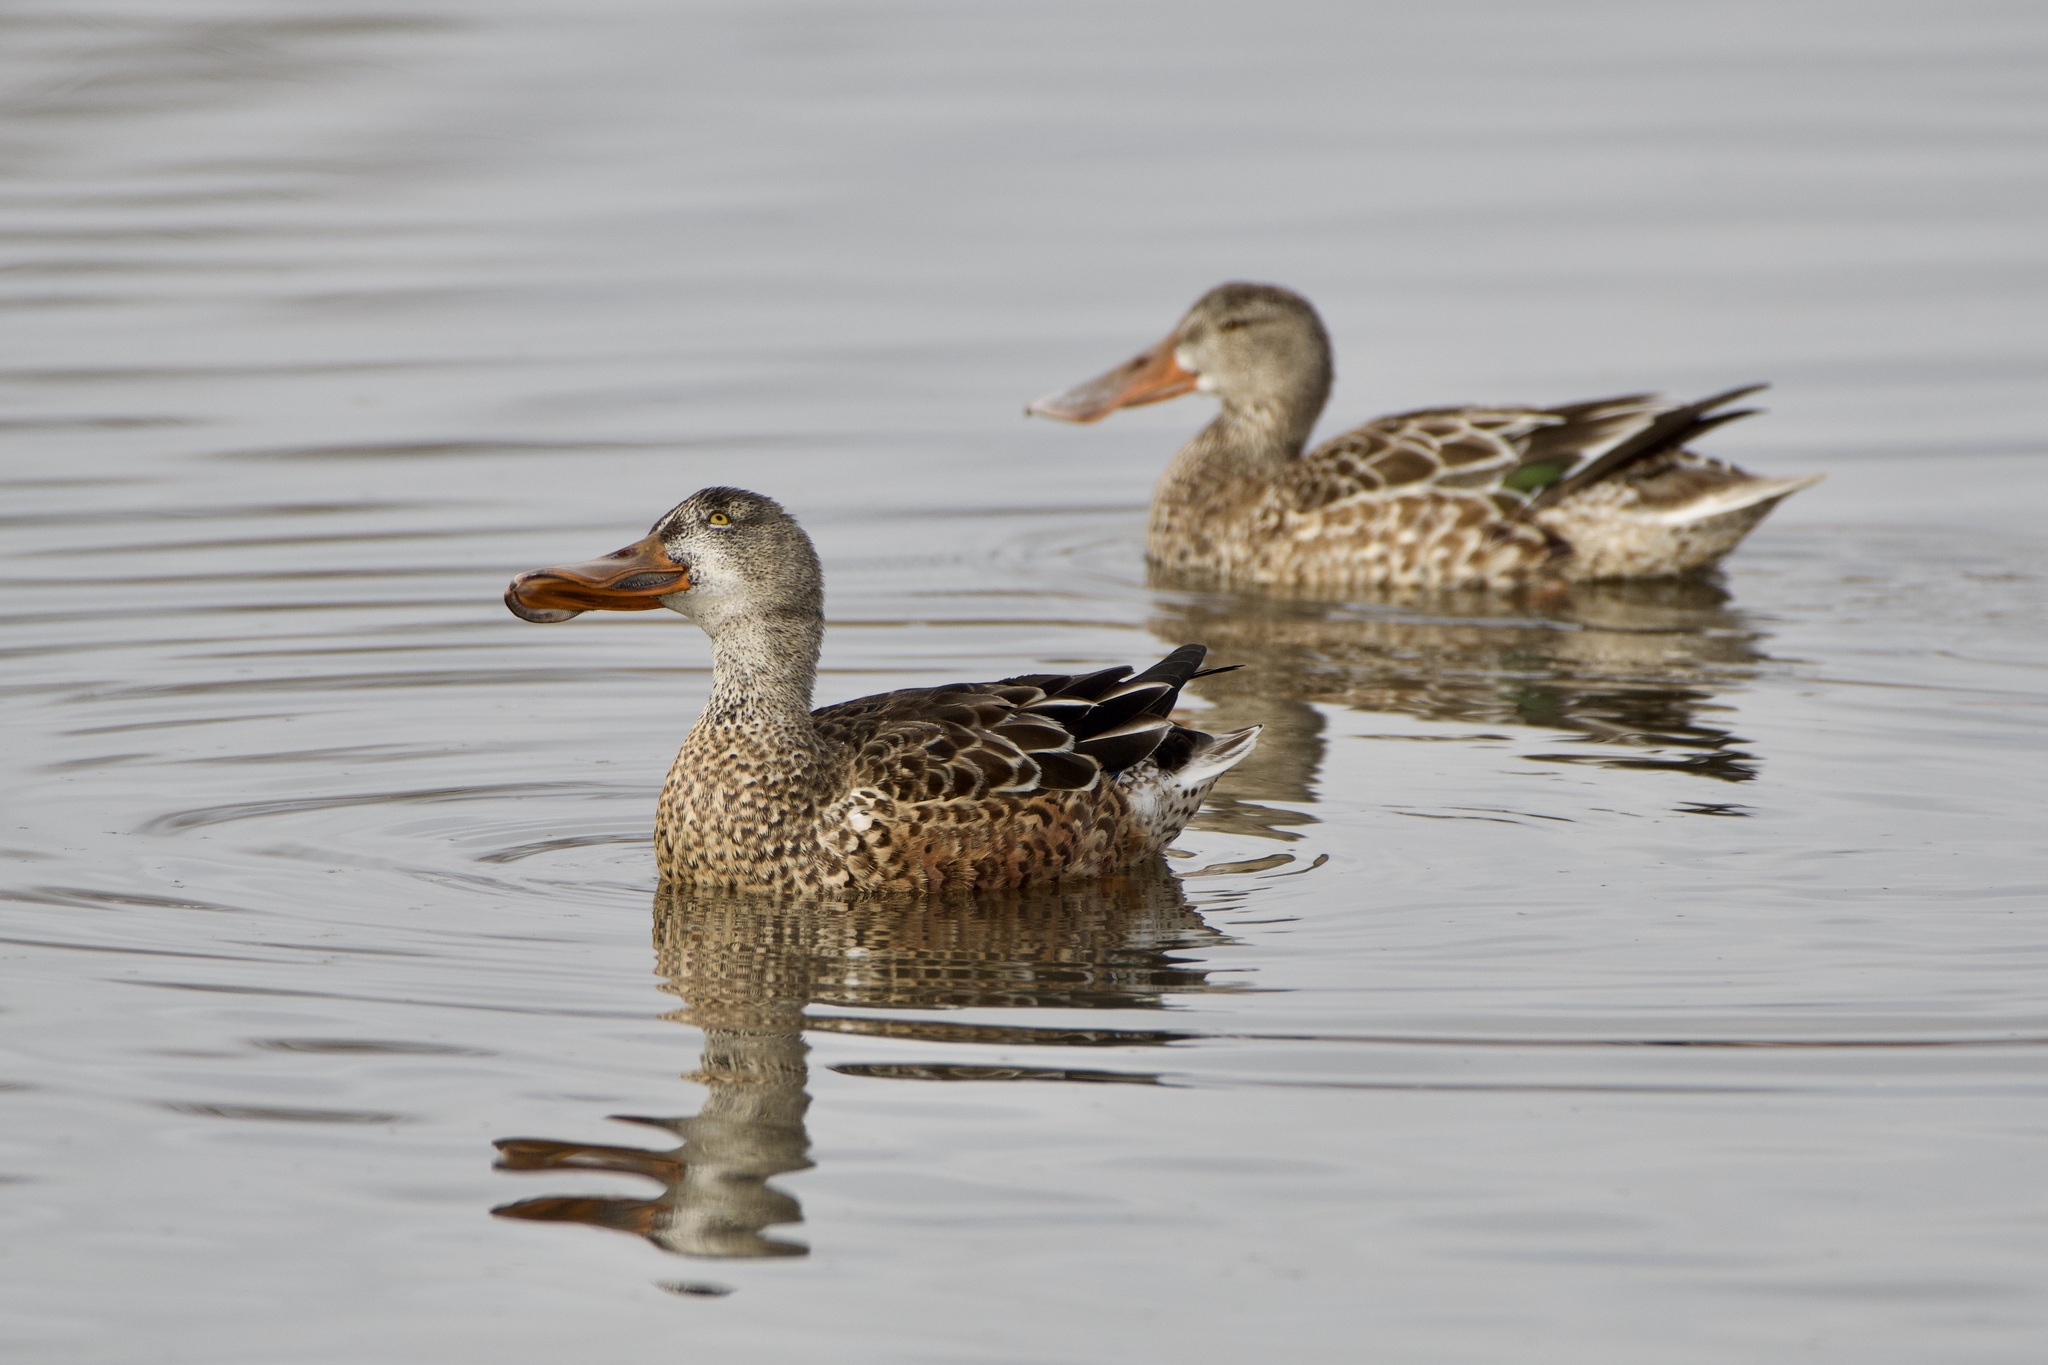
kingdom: Animalia
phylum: Chordata
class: Aves
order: Anseriformes
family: Anatidae
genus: Spatula
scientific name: Spatula clypeata
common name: Northern shoveler
